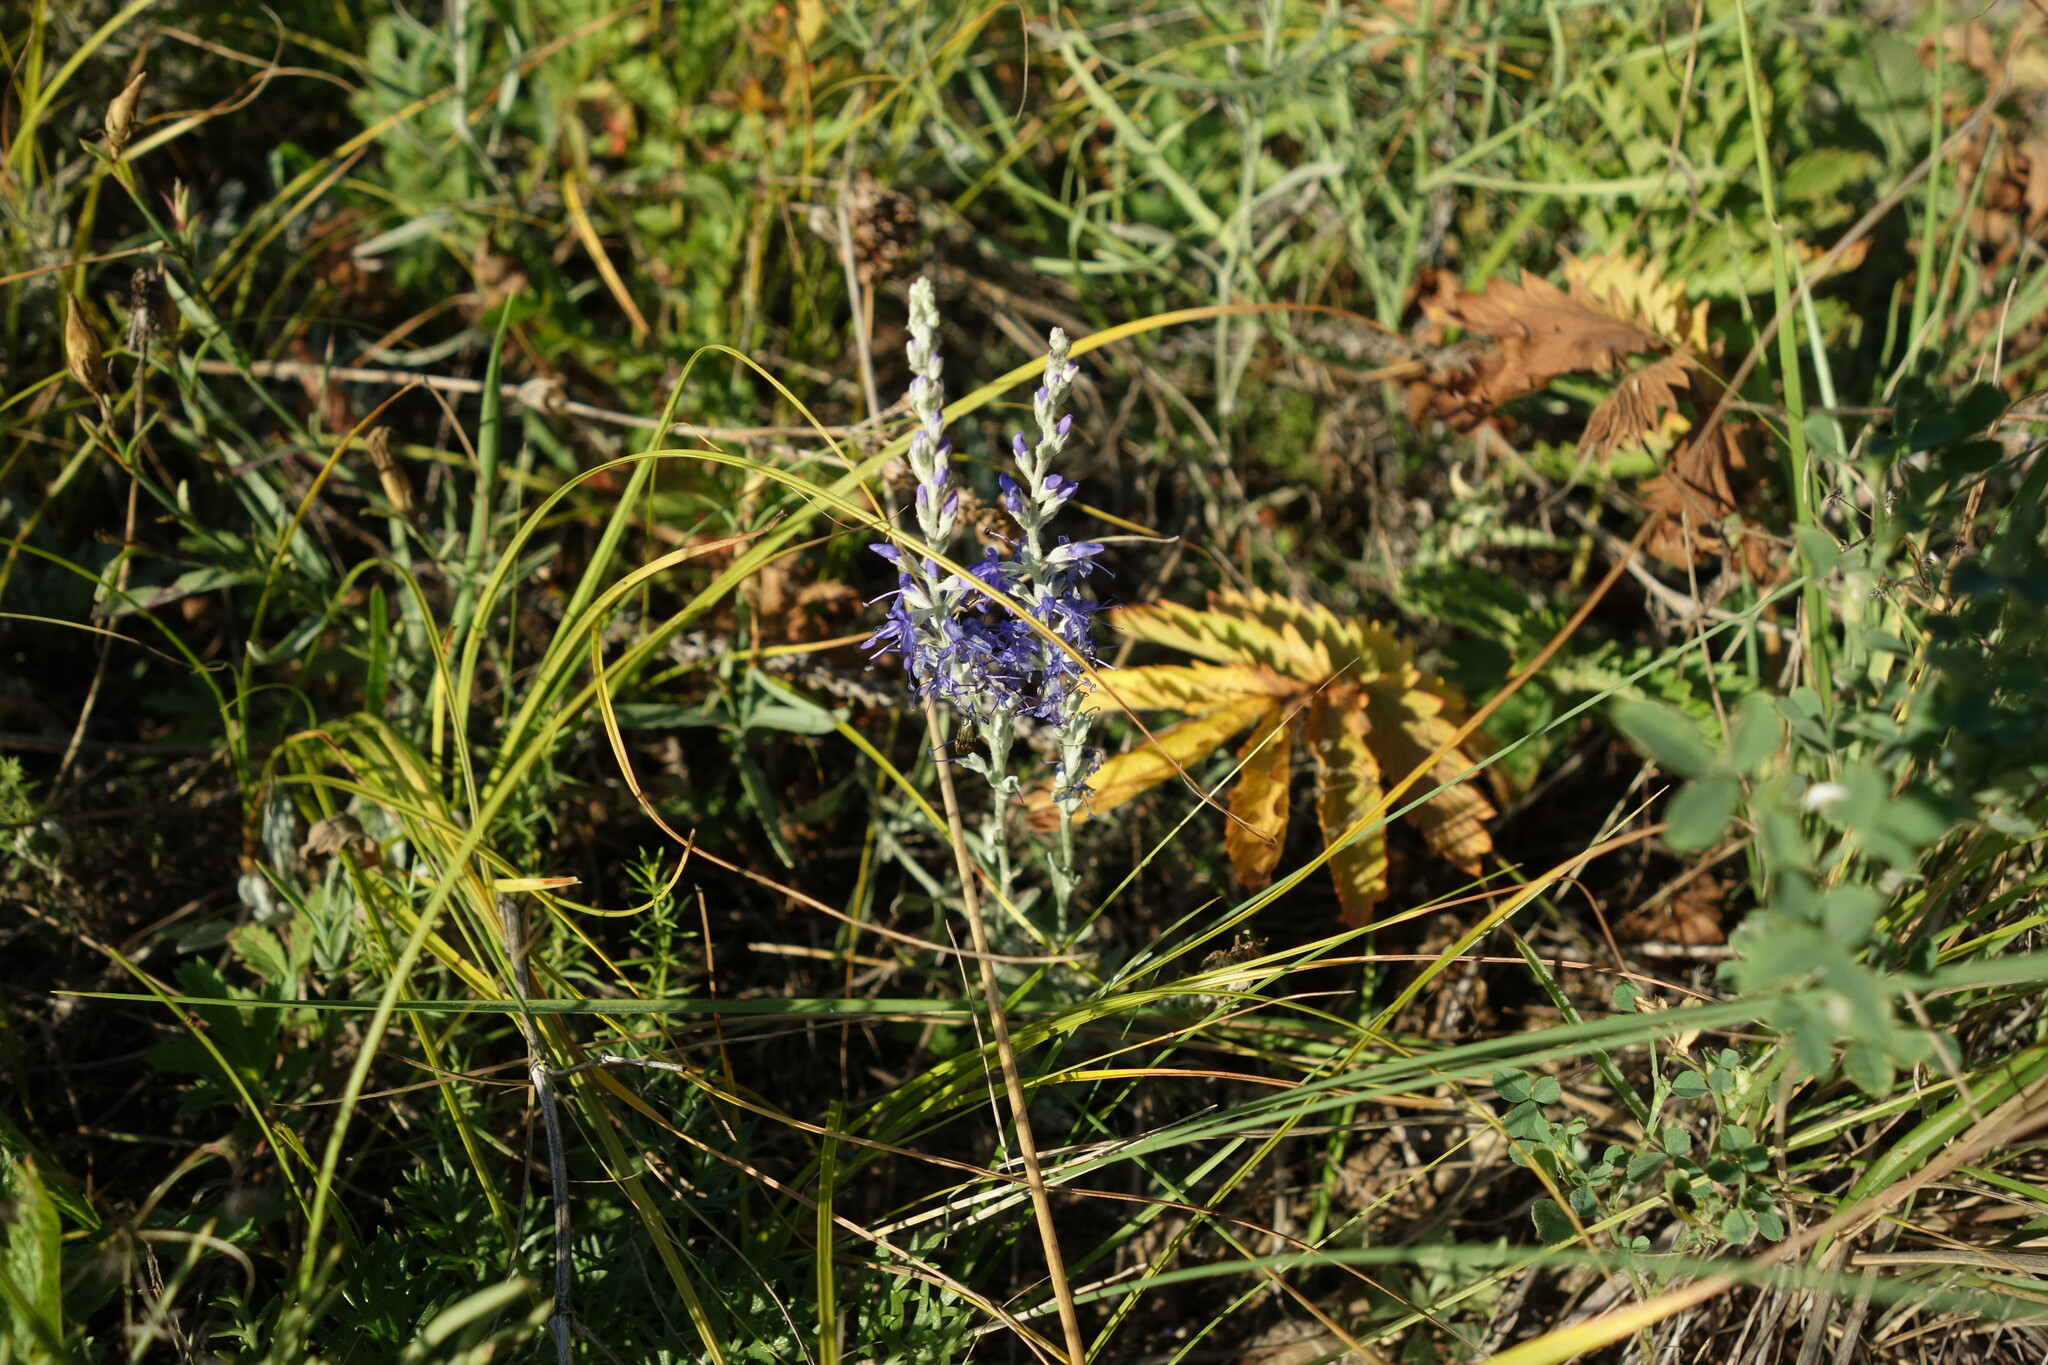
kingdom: Plantae
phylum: Tracheophyta
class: Magnoliopsida
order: Lamiales
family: Plantaginaceae
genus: Veronica
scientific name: Veronica incana
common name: Silver speedwell
